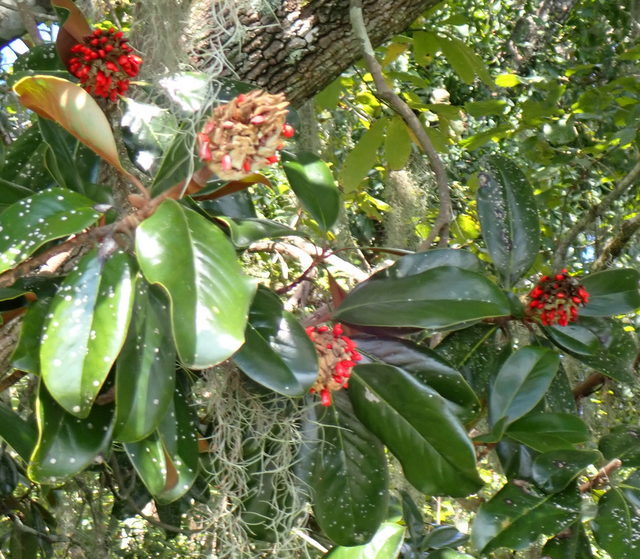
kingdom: Plantae
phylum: Tracheophyta
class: Magnoliopsida
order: Magnoliales
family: Magnoliaceae
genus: Magnolia
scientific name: Magnolia grandiflora
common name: Southern magnolia
